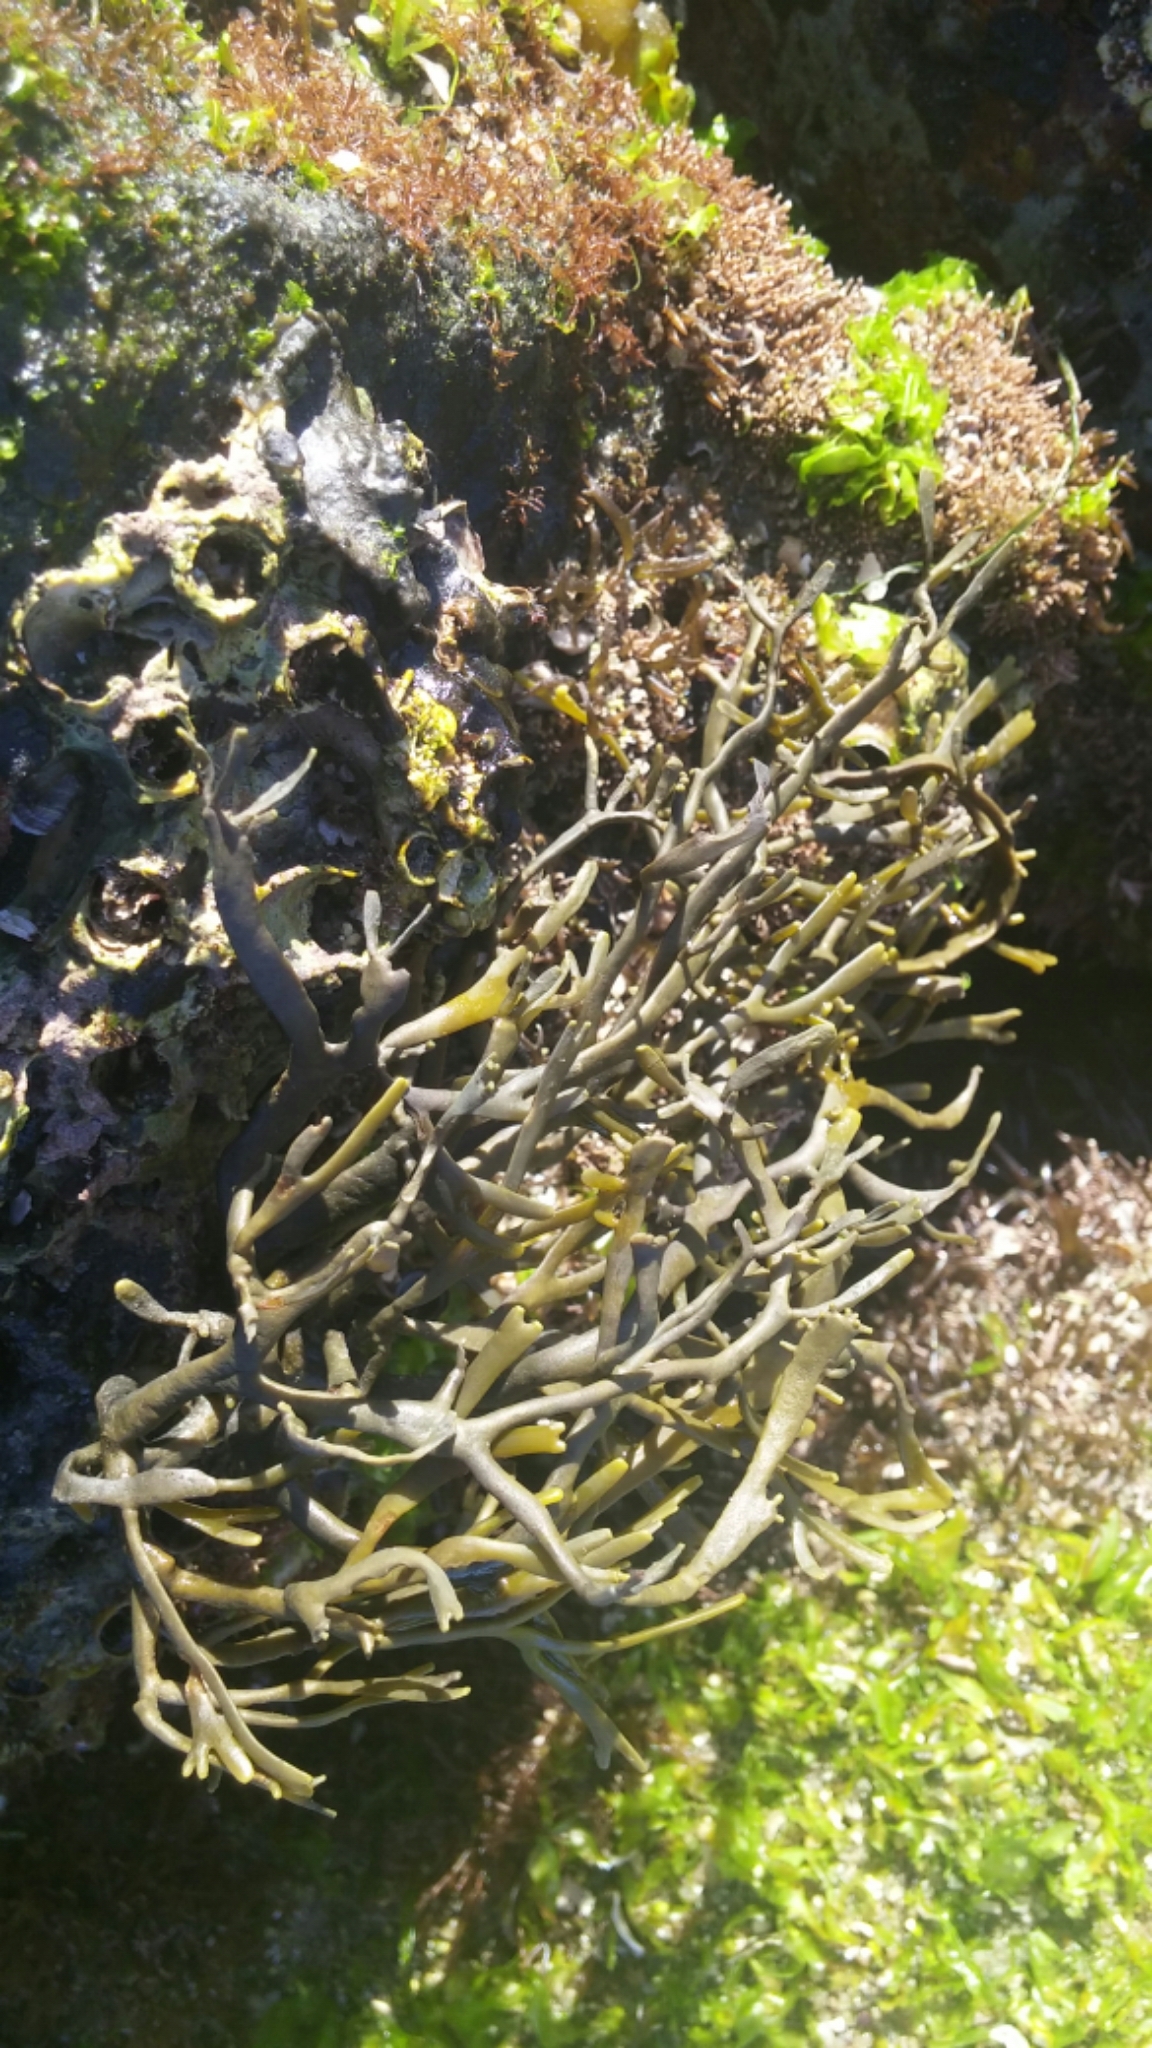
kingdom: Chromista
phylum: Ochrophyta
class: Phaeophyceae
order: Fucales
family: Fucaceae
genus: Silvetia
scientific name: Silvetia
